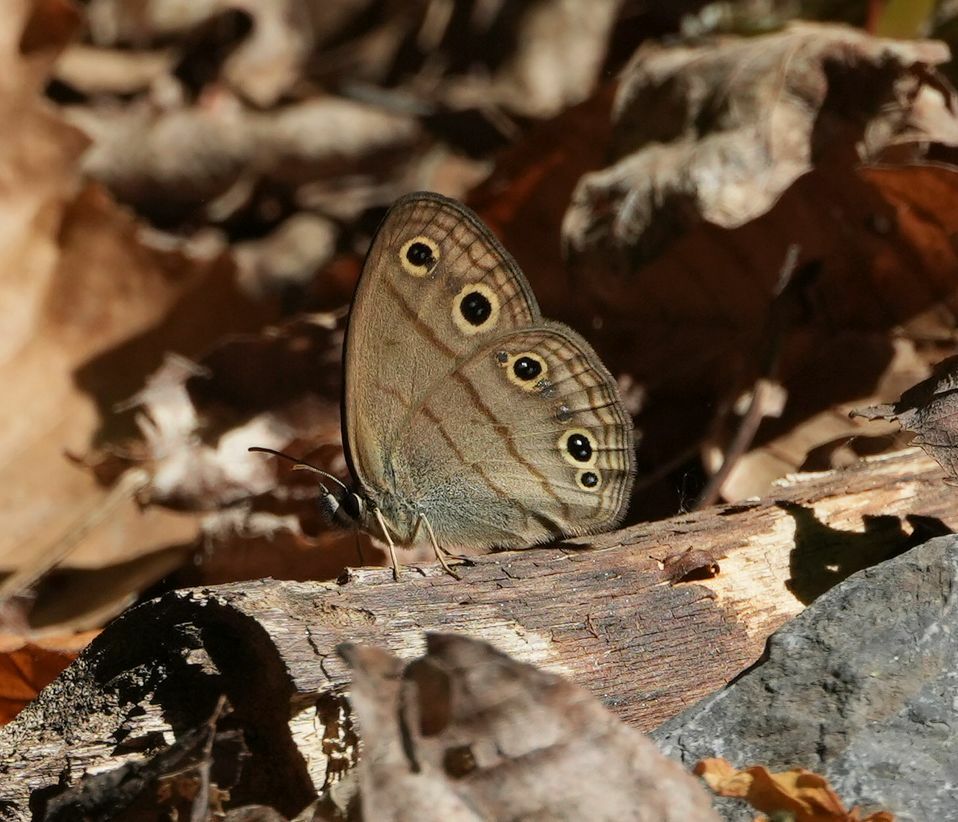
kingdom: Animalia
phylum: Arthropoda
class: Insecta
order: Lepidoptera
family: Nymphalidae
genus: Euptychia
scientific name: Euptychia cymela
